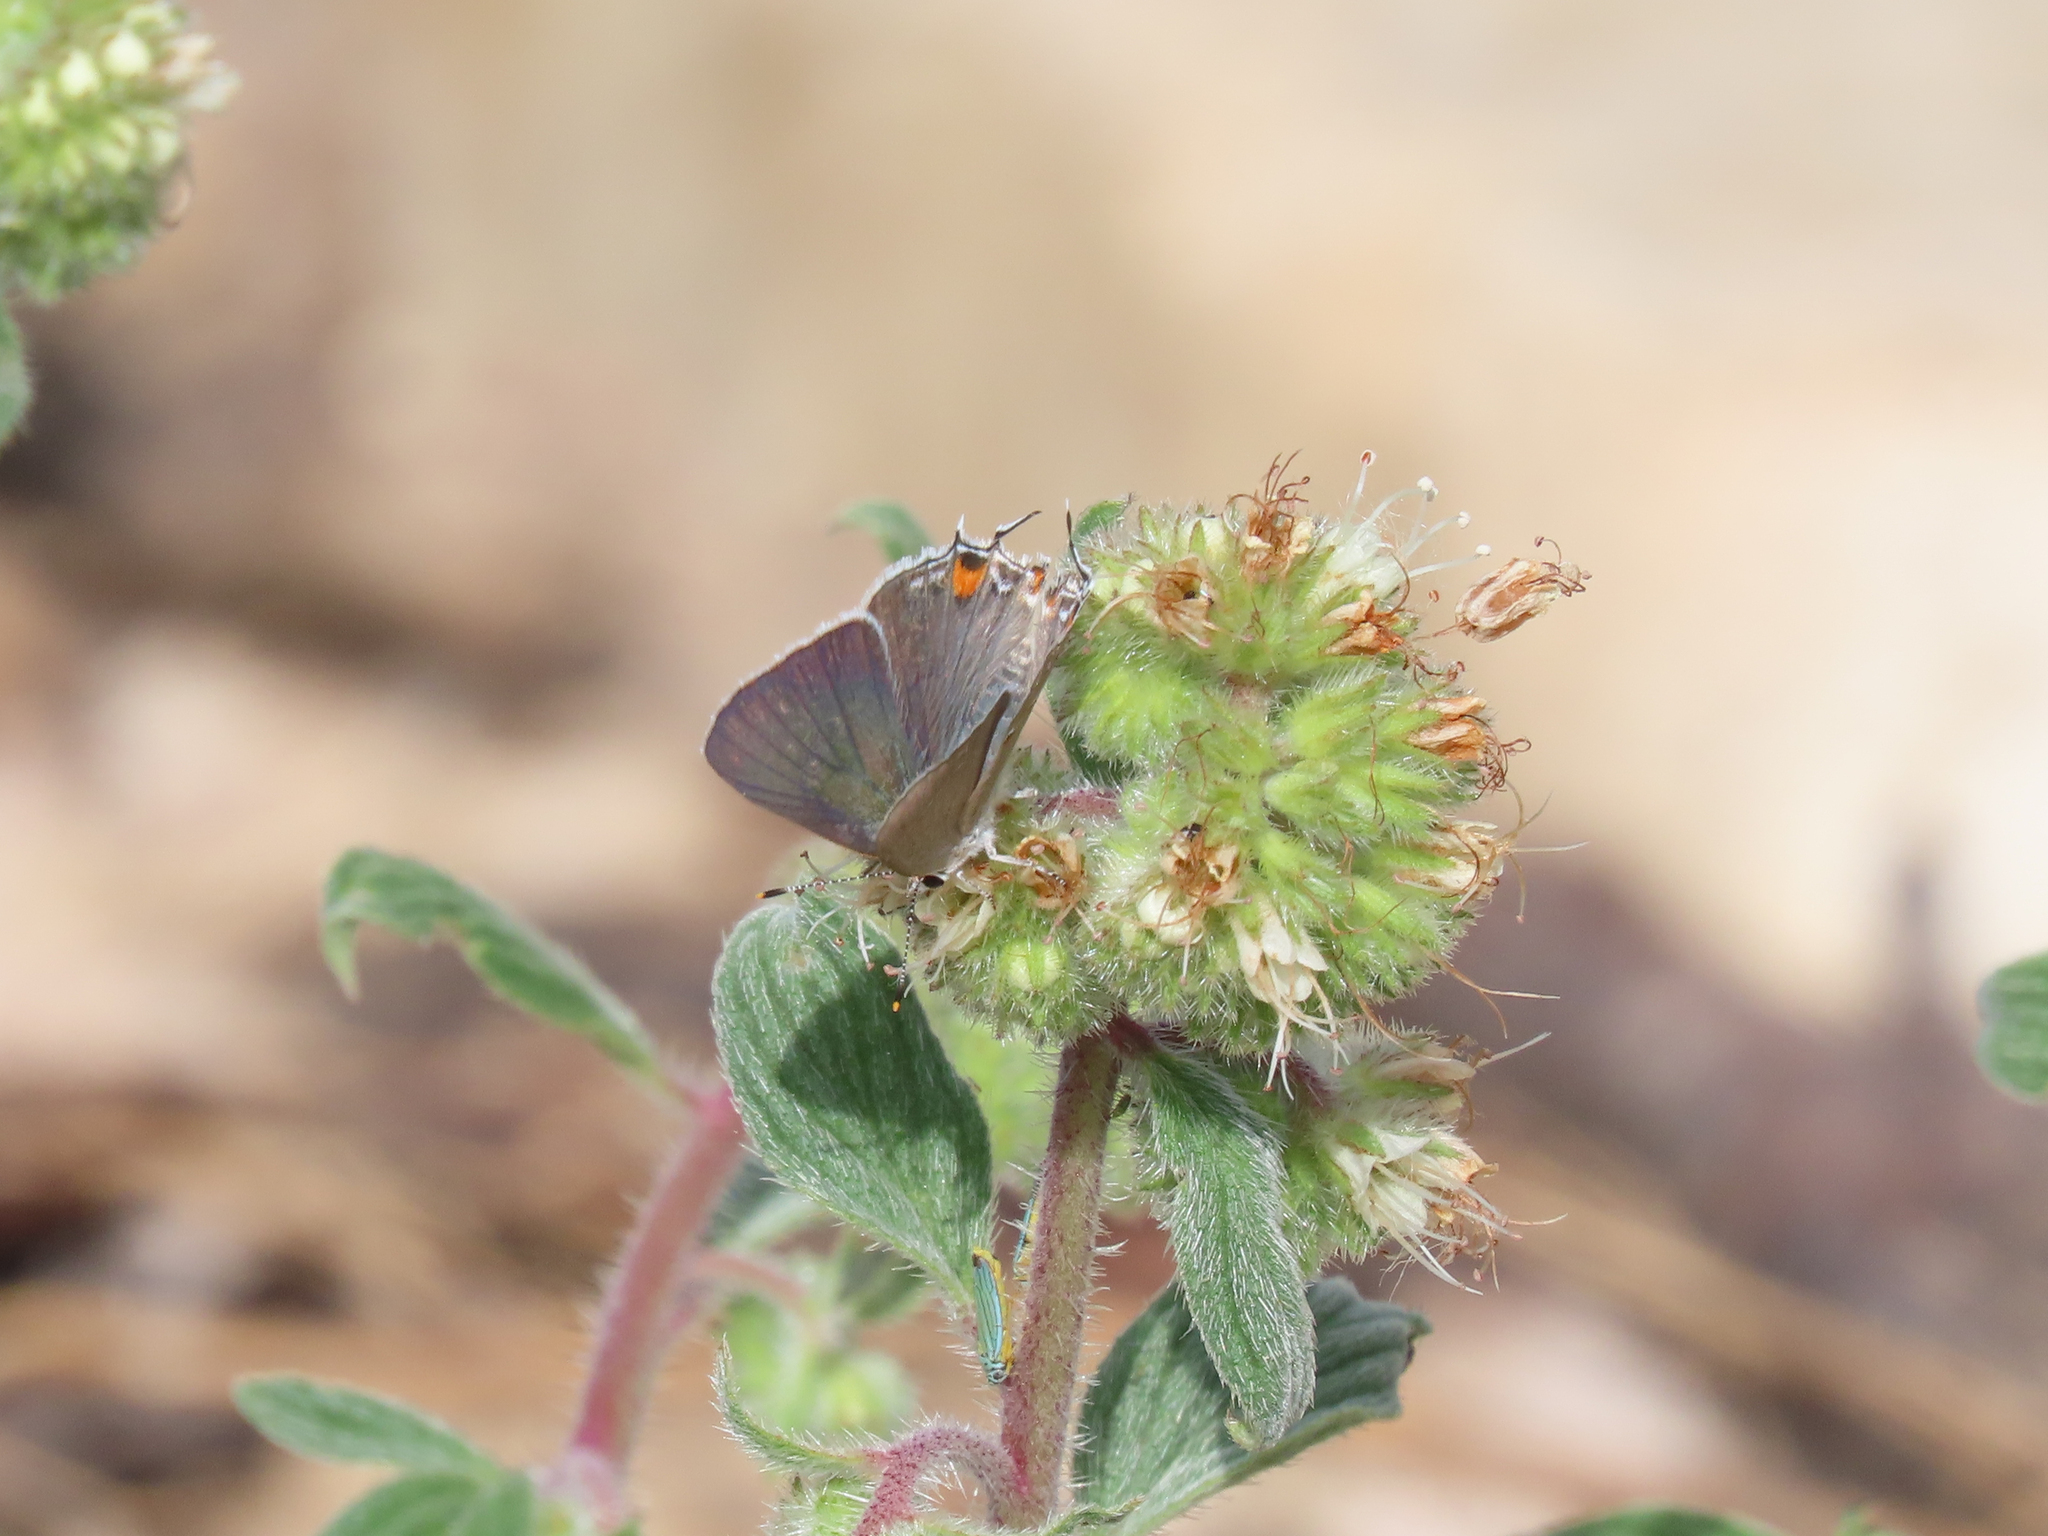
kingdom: Animalia
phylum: Arthropoda
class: Insecta
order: Lepidoptera
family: Lycaenidae
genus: Strymon
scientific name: Strymon melinus
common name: Gray hairstreak
